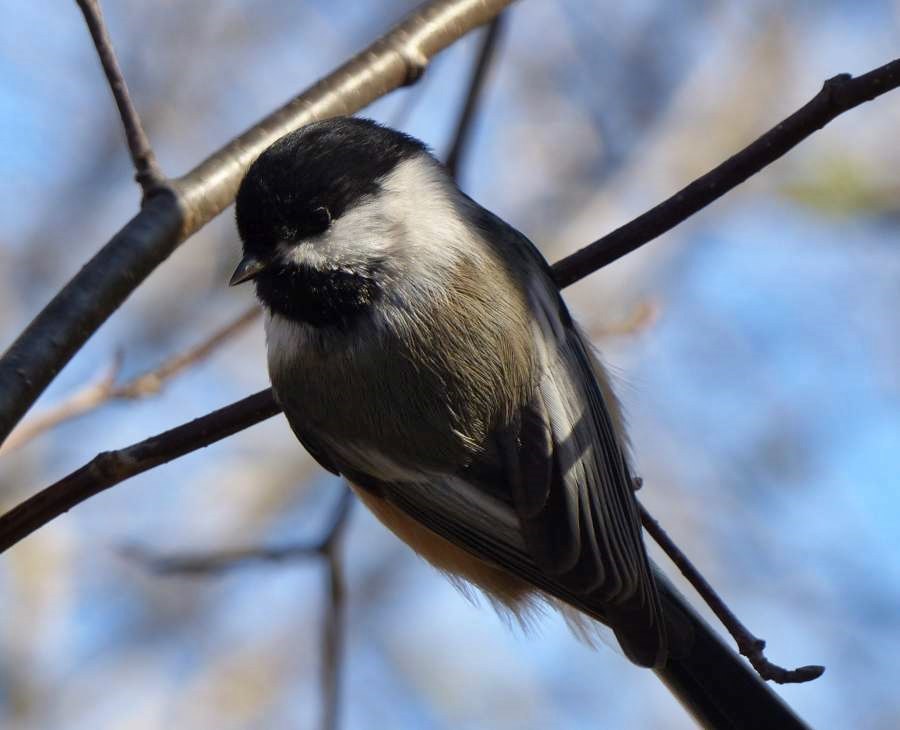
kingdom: Animalia
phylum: Chordata
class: Aves
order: Passeriformes
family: Paridae
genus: Poecile
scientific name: Poecile atricapillus
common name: Black-capped chickadee
